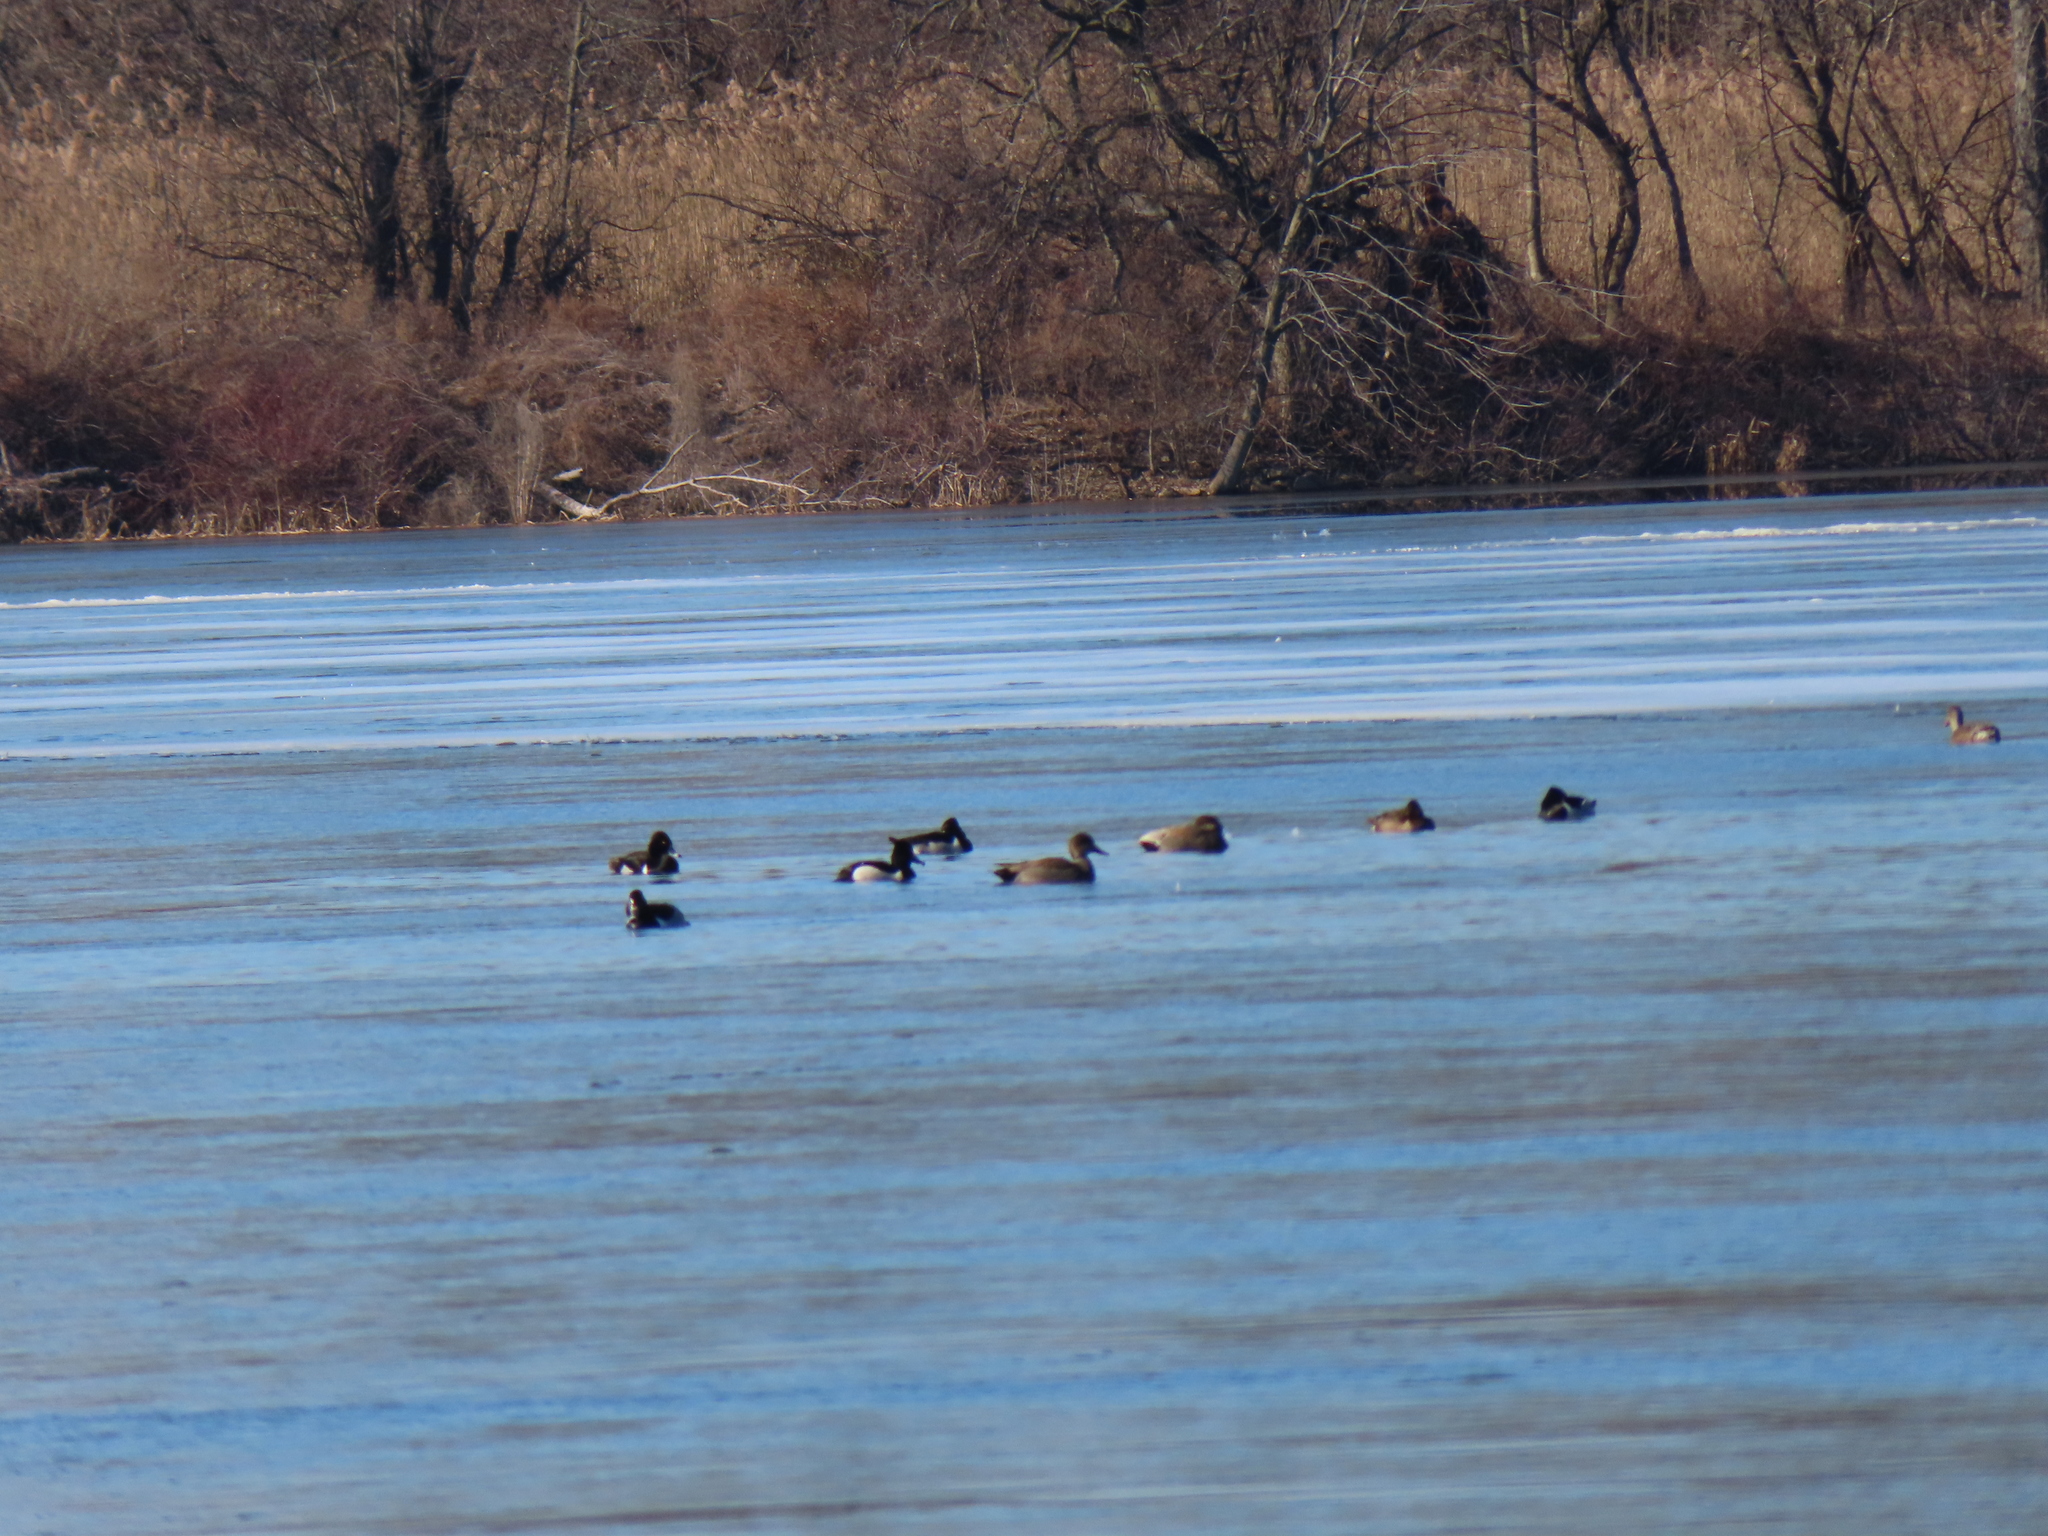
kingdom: Animalia
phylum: Chordata
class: Aves
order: Anseriformes
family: Anatidae
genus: Aythya
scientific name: Aythya collaris
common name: Ring-necked duck
